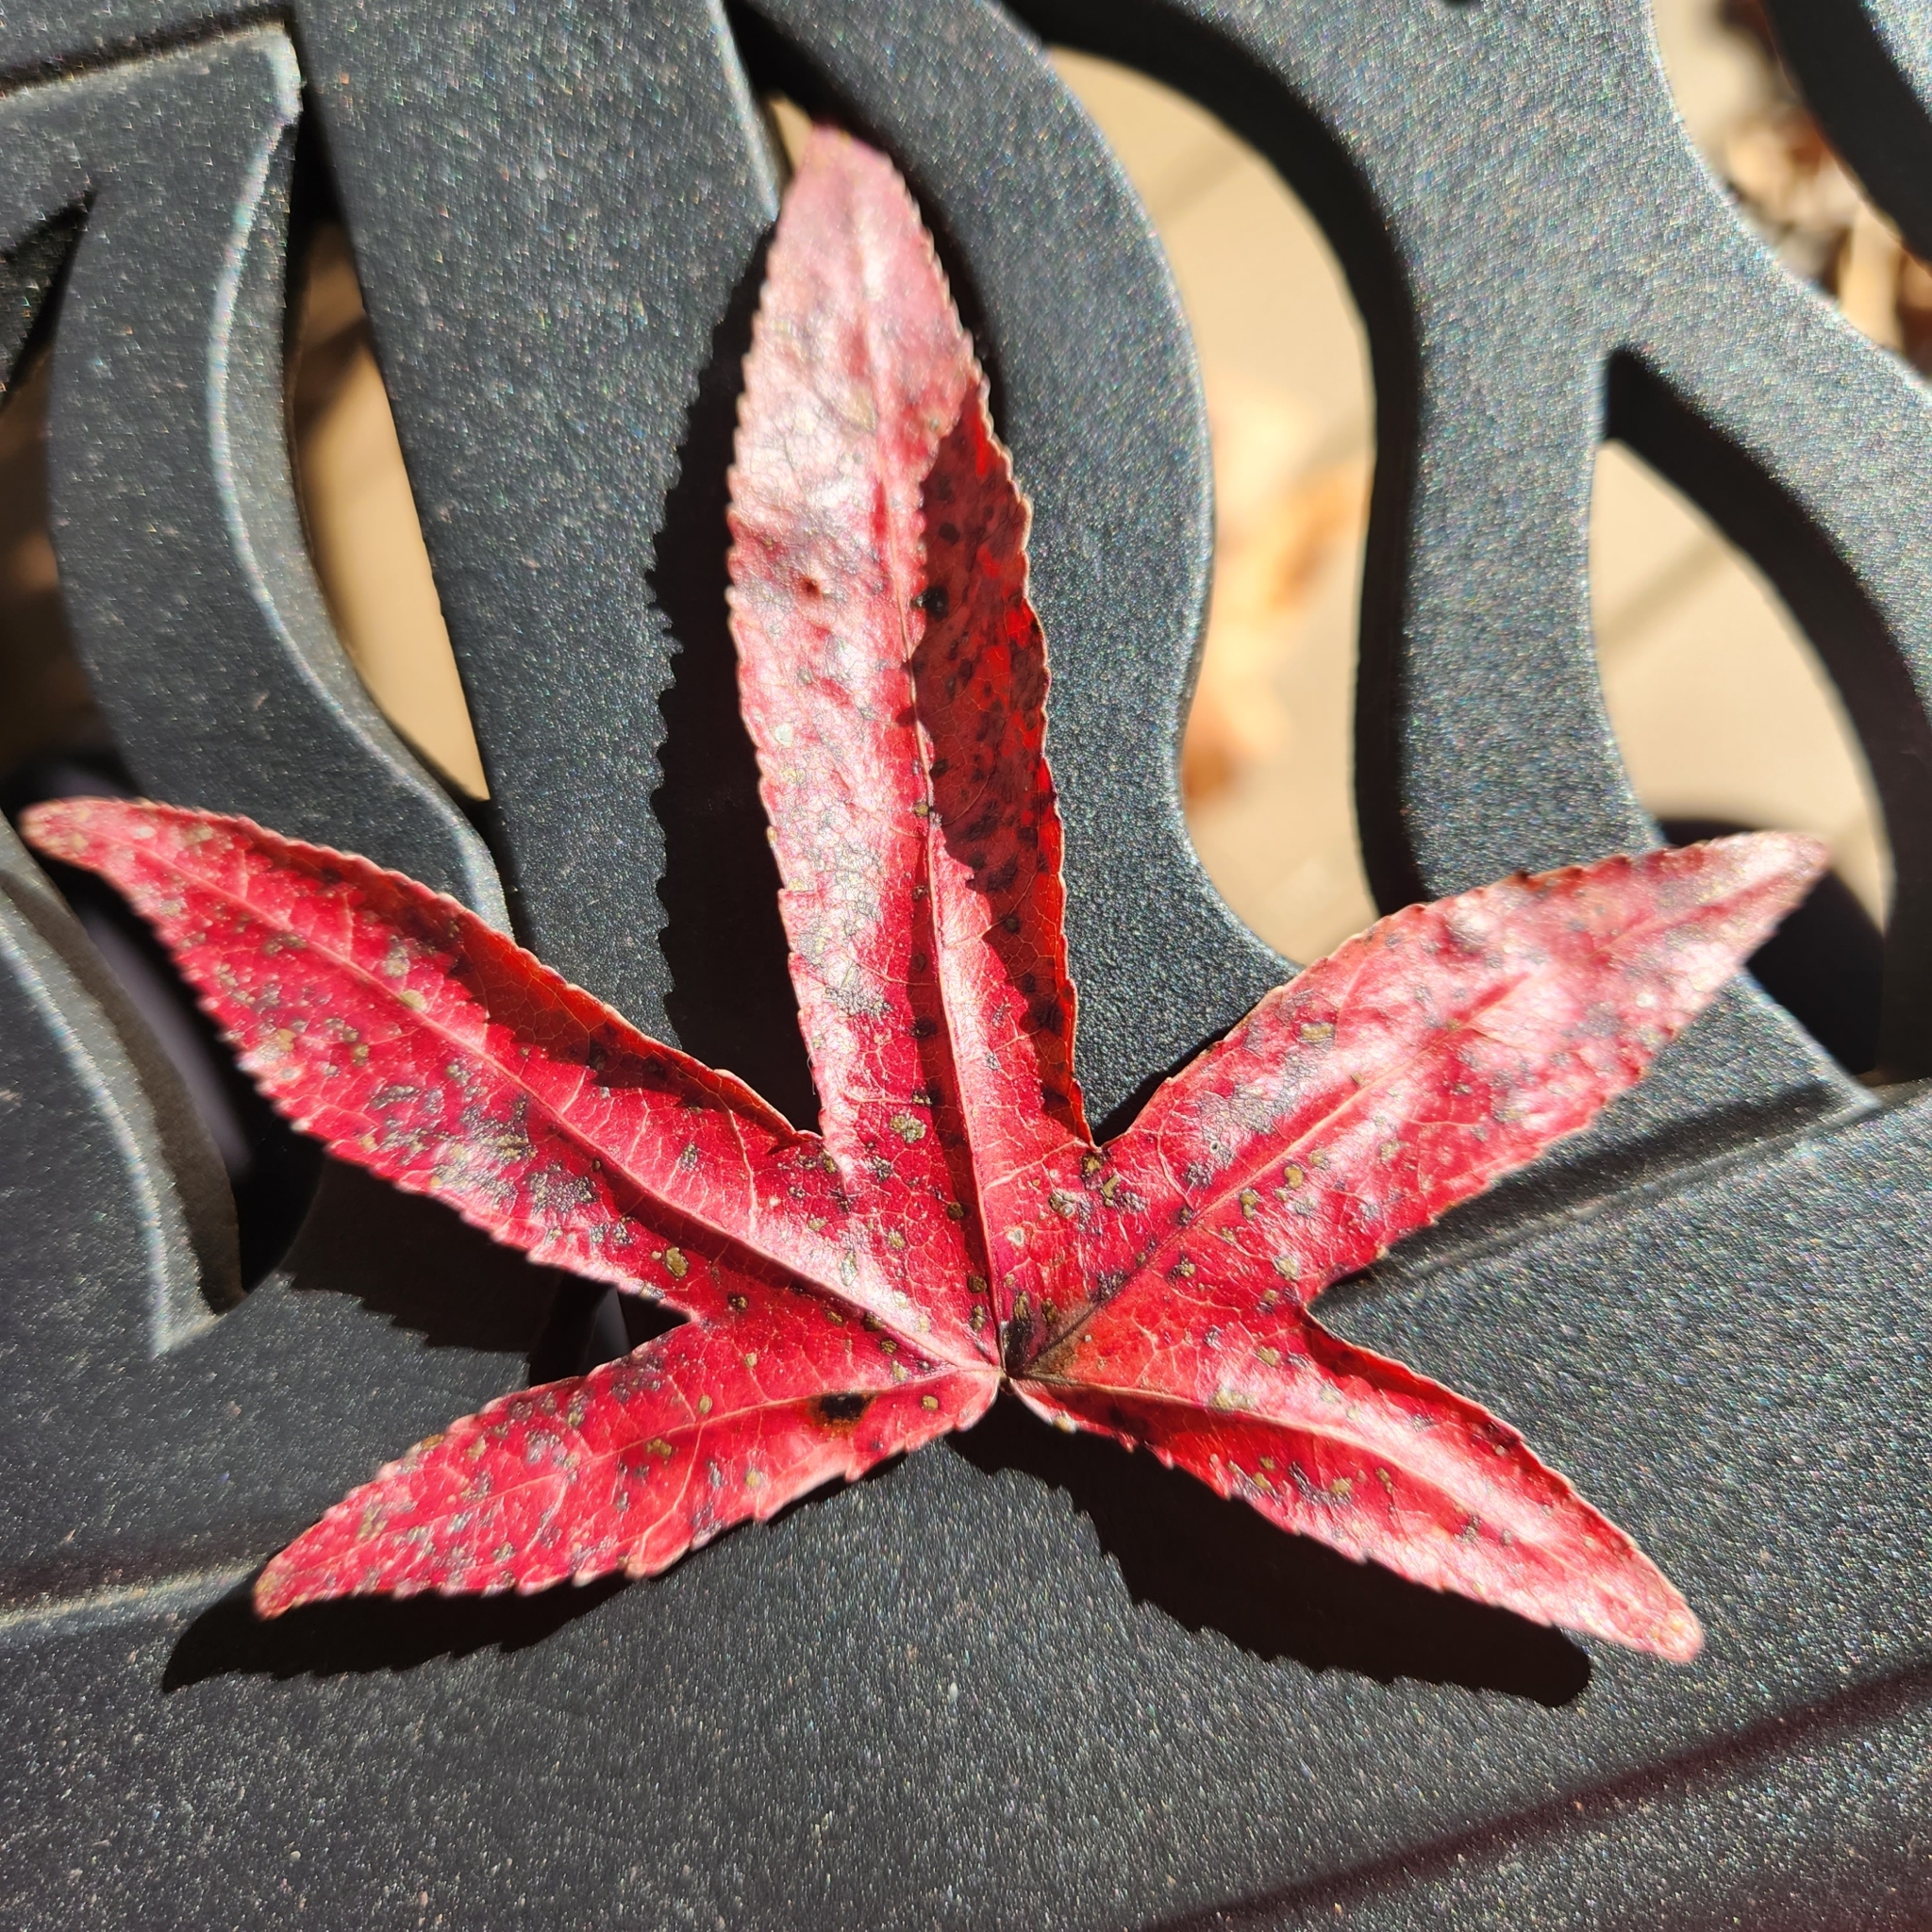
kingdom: Plantae
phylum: Tracheophyta
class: Magnoliopsida
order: Saxifragales
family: Altingiaceae
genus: Liquidambar
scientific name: Liquidambar styraciflua
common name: Sweet gum
